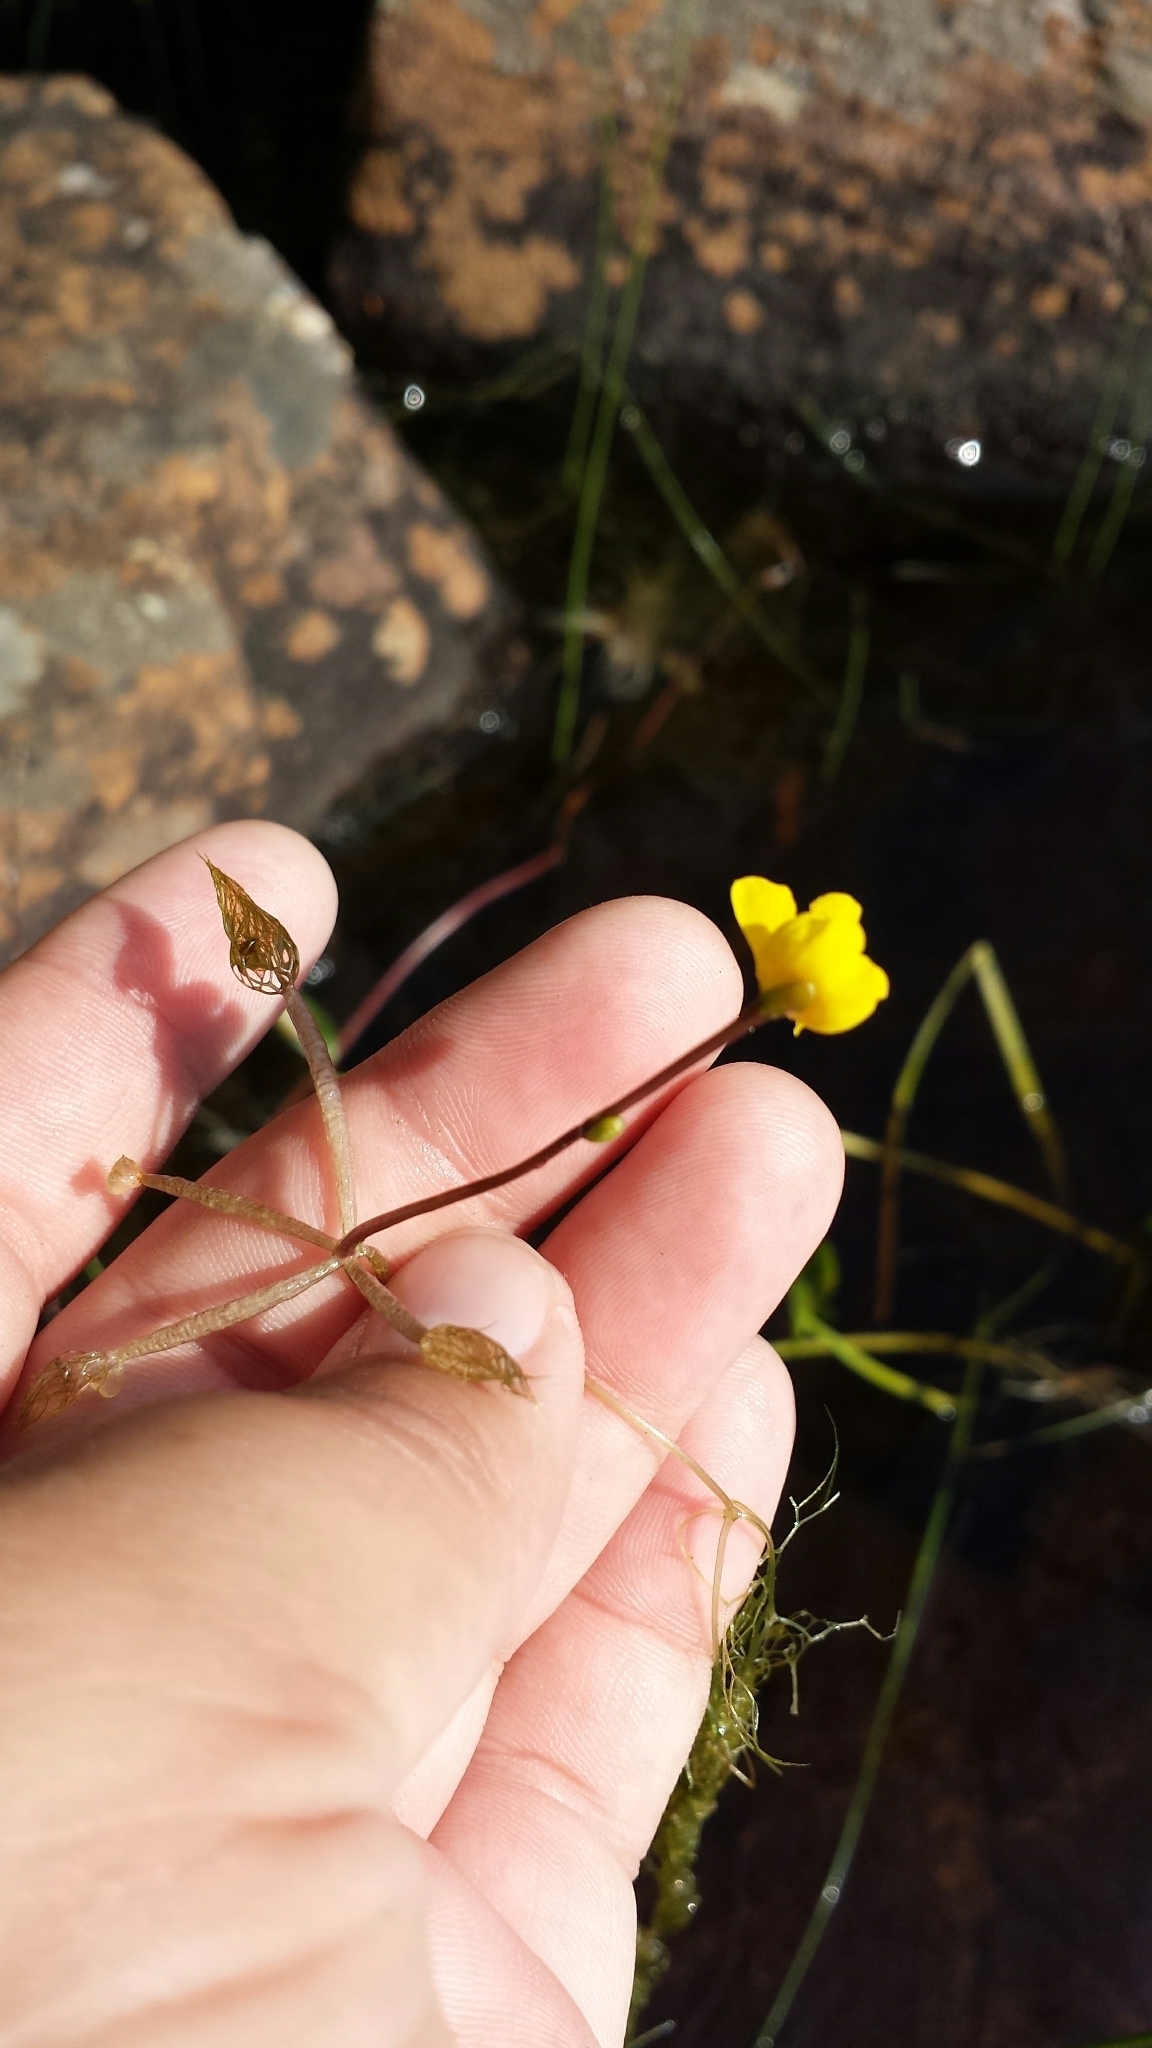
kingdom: Plantae
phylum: Tracheophyta
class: Magnoliopsida
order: Lamiales
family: Lentibulariaceae
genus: Utricularia
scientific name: Utricularia radiata
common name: Floating bladderwort
